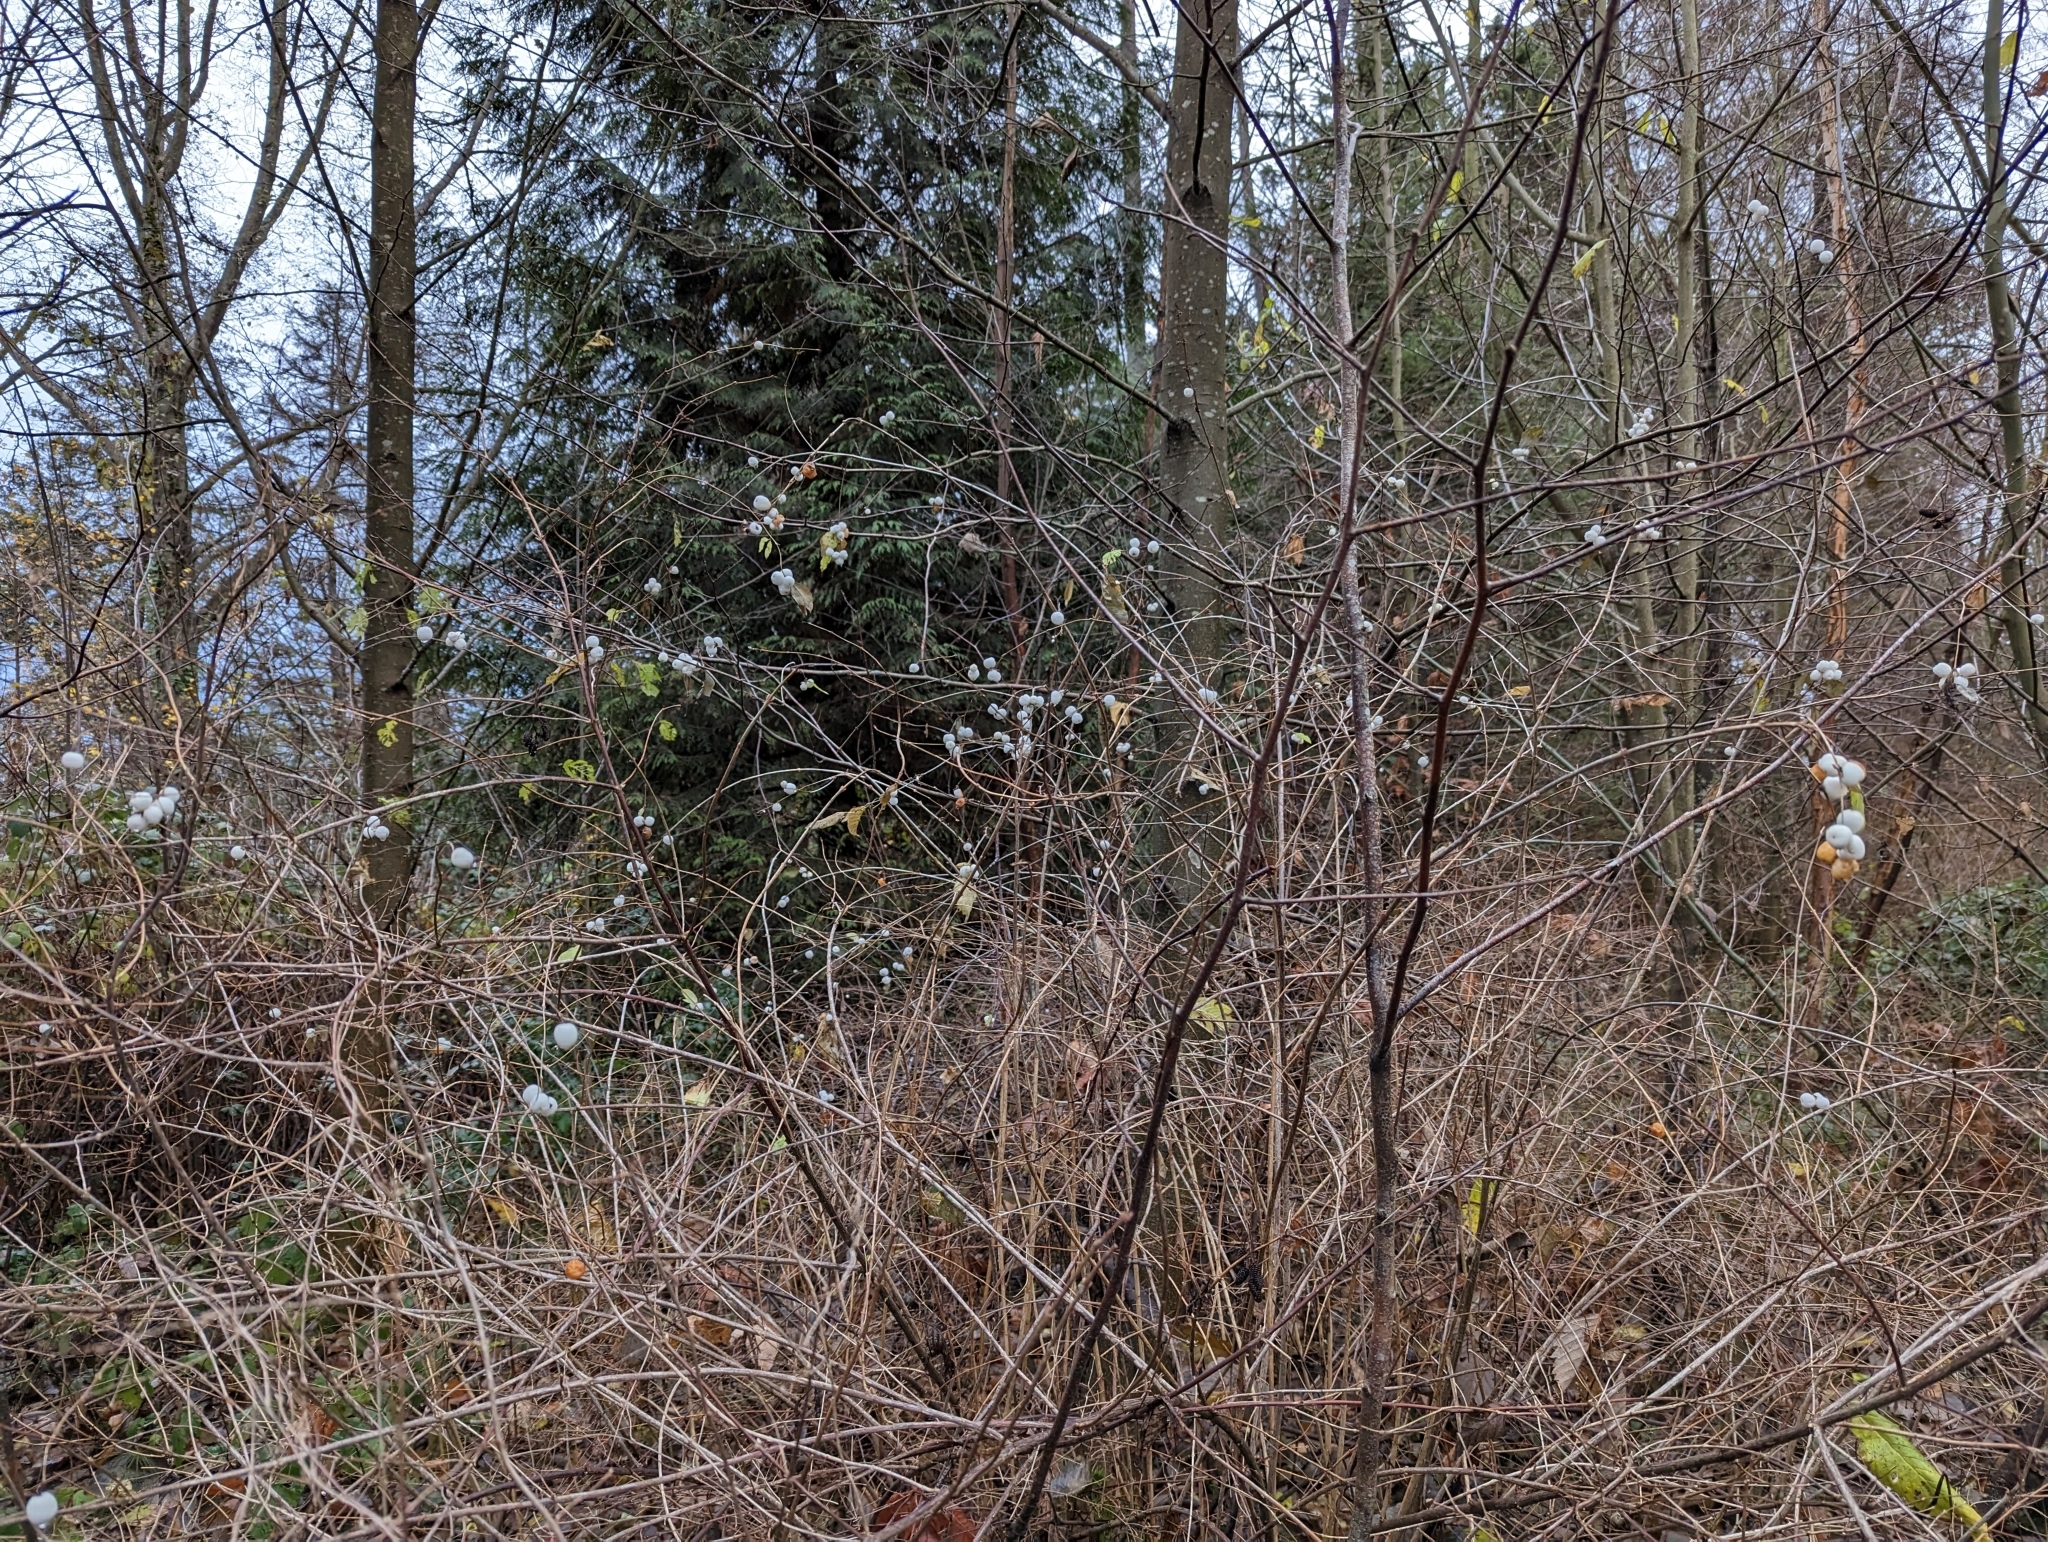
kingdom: Plantae
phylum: Tracheophyta
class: Magnoliopsida
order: Dipsacales
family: Caprifoliaceae
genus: Symphoricarpos
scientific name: Symphoricarpos albus
